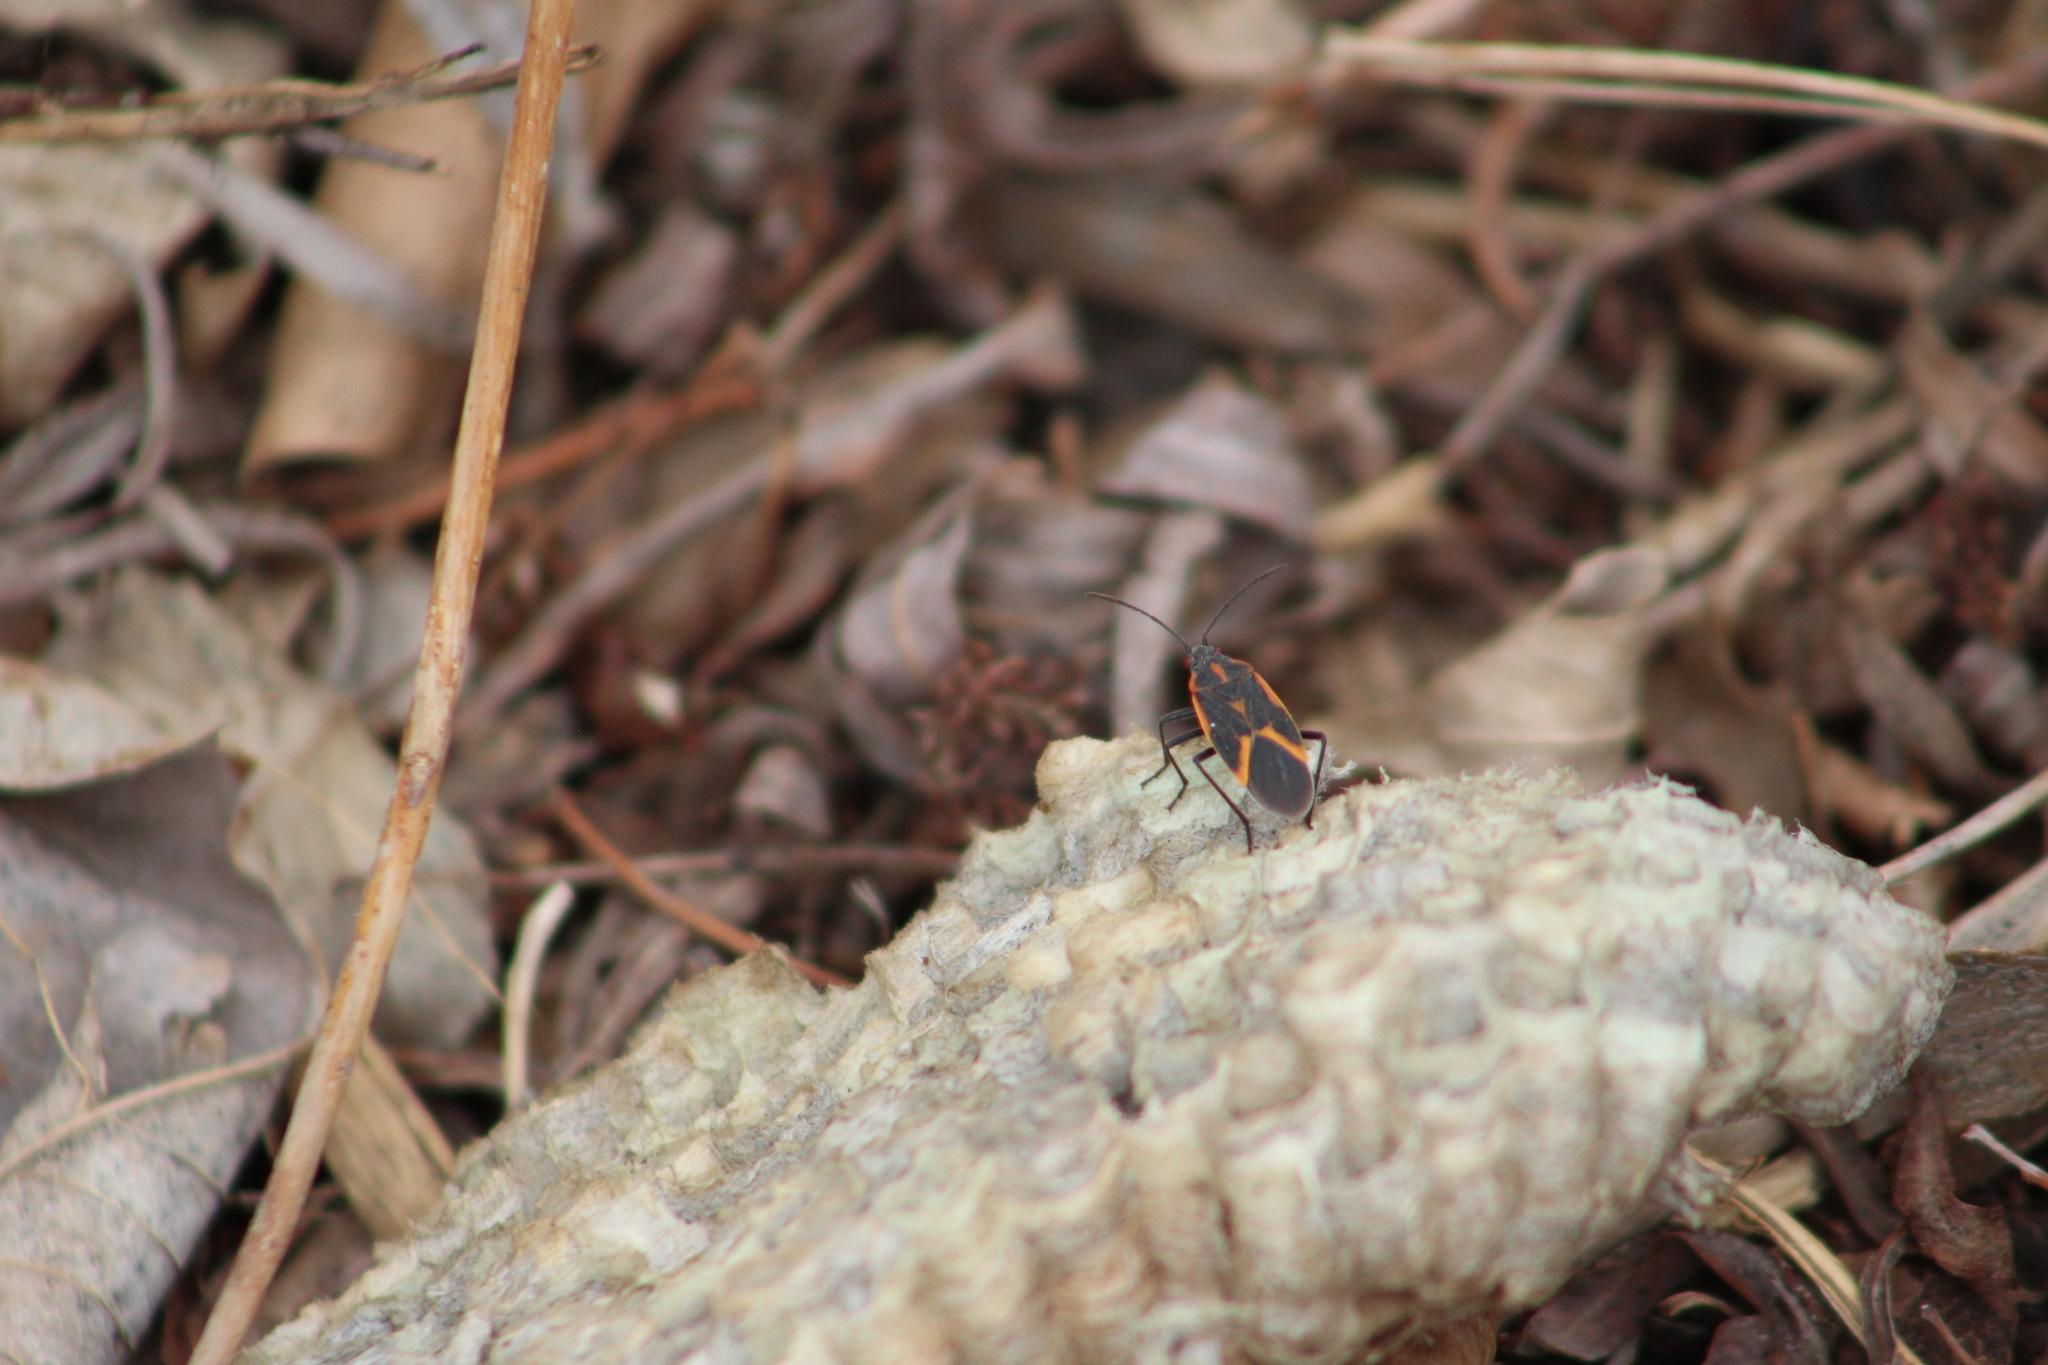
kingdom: Animalia
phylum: Arthropoda
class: Insecta
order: Hemiptera
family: Rhopalidae
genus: Boisea
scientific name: Boisea trivittata
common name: Boxelder bug
